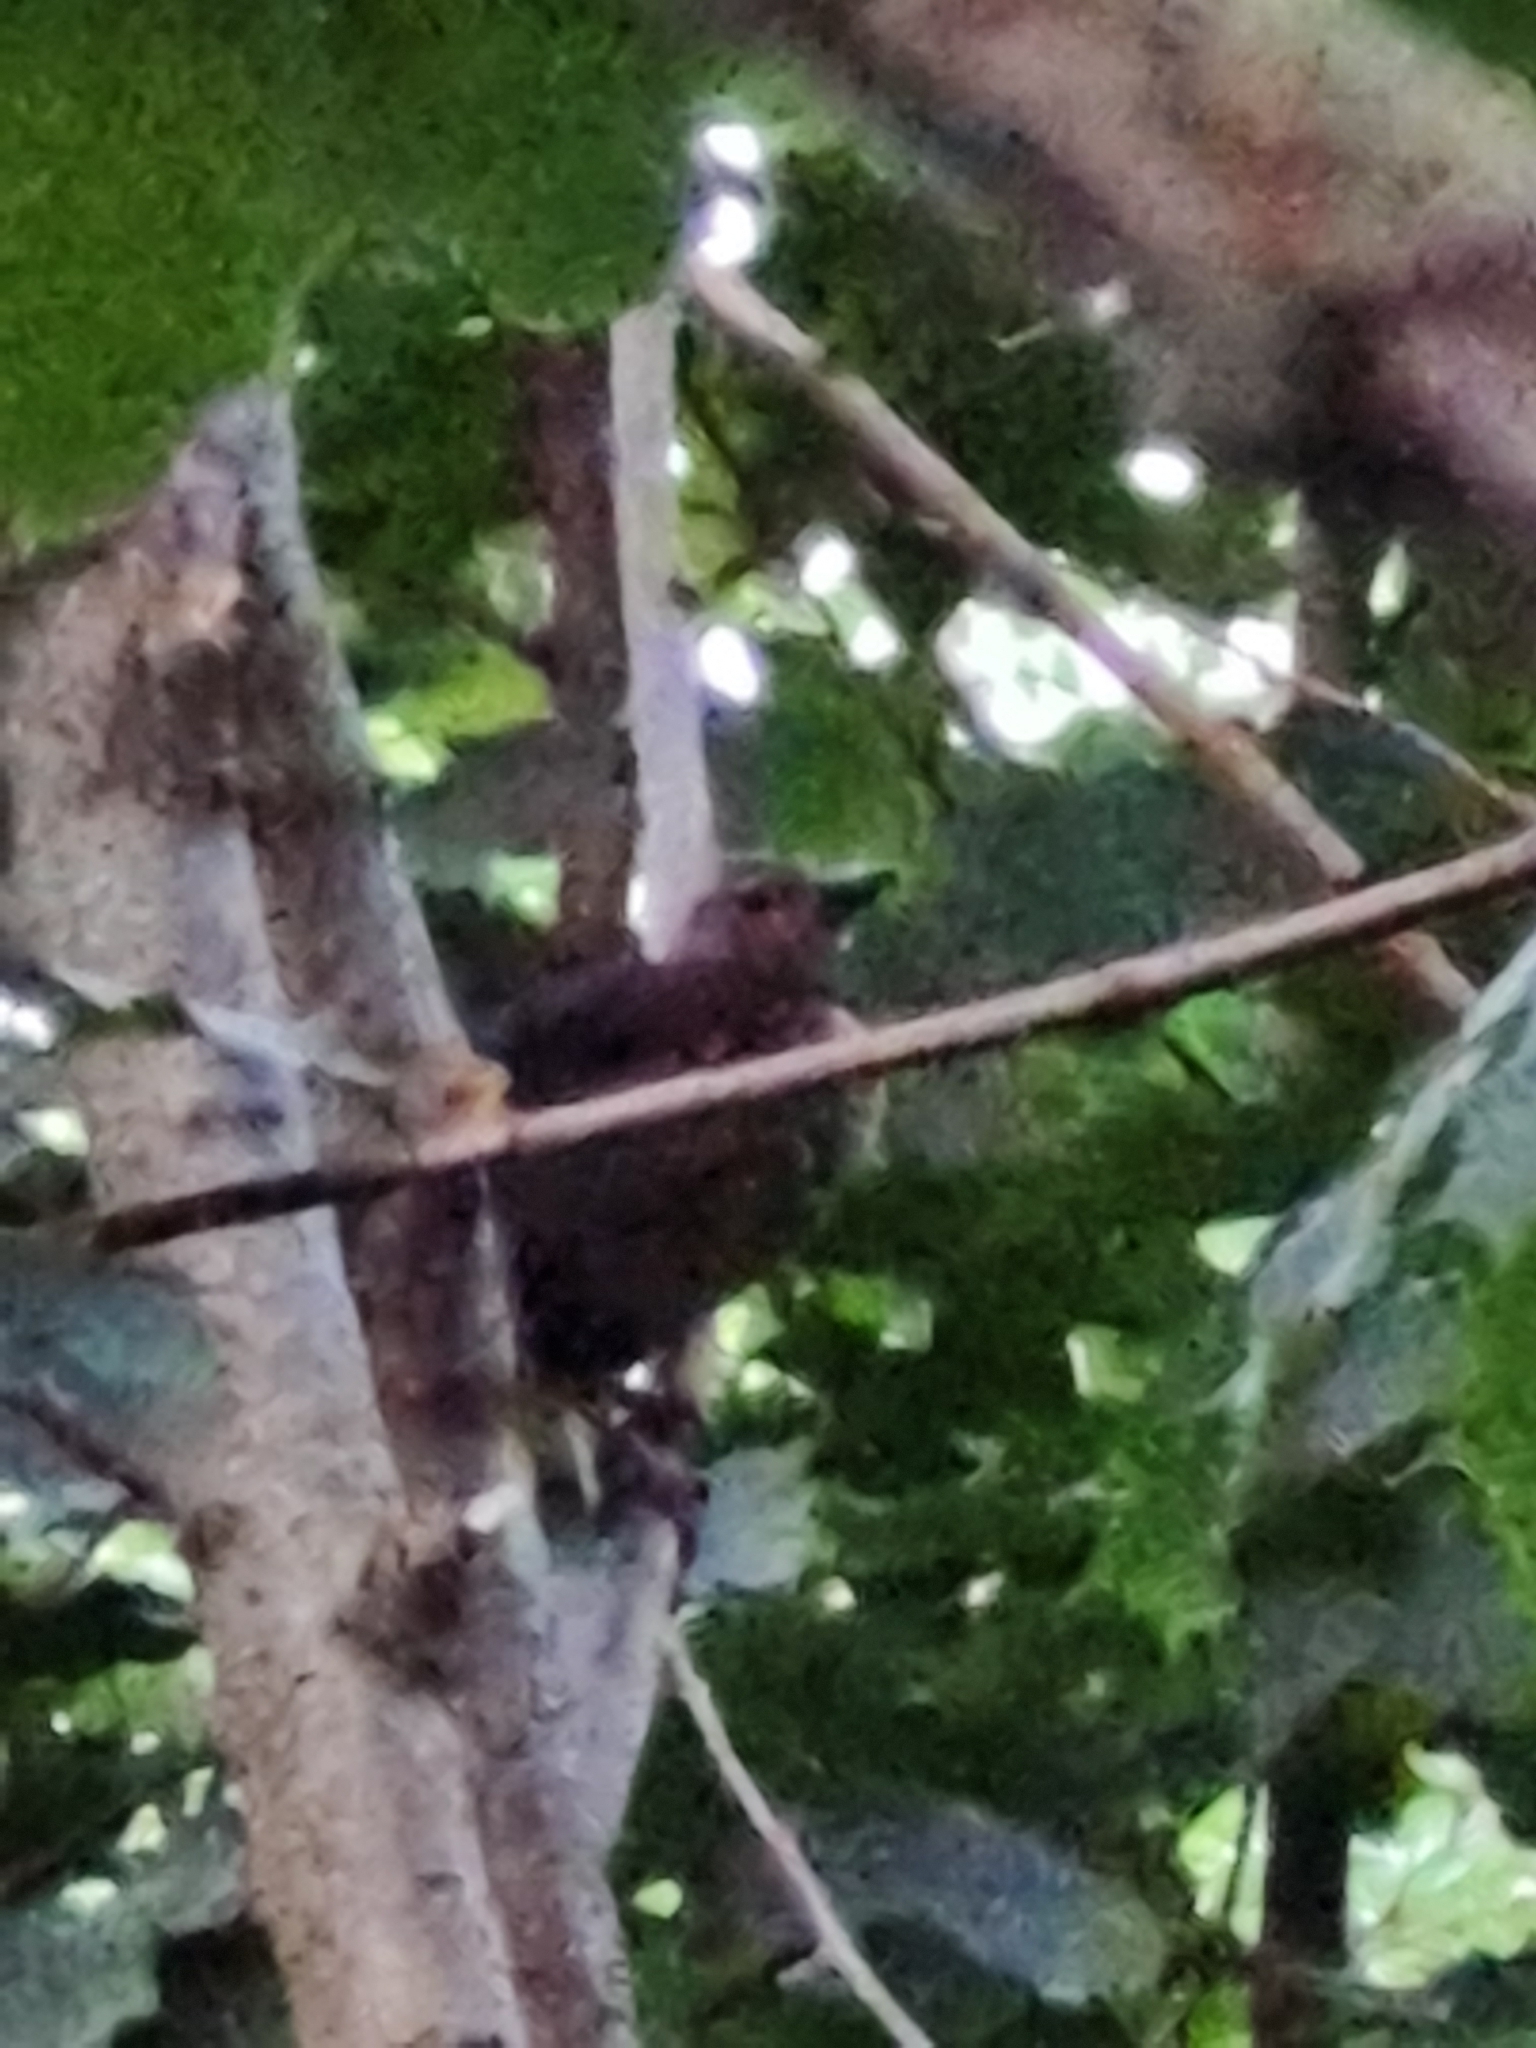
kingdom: Animalia
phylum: Chordata
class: Aves
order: Passeriformes
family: Turdidae
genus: Turdus
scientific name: Turdus merula
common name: Common blackbird
